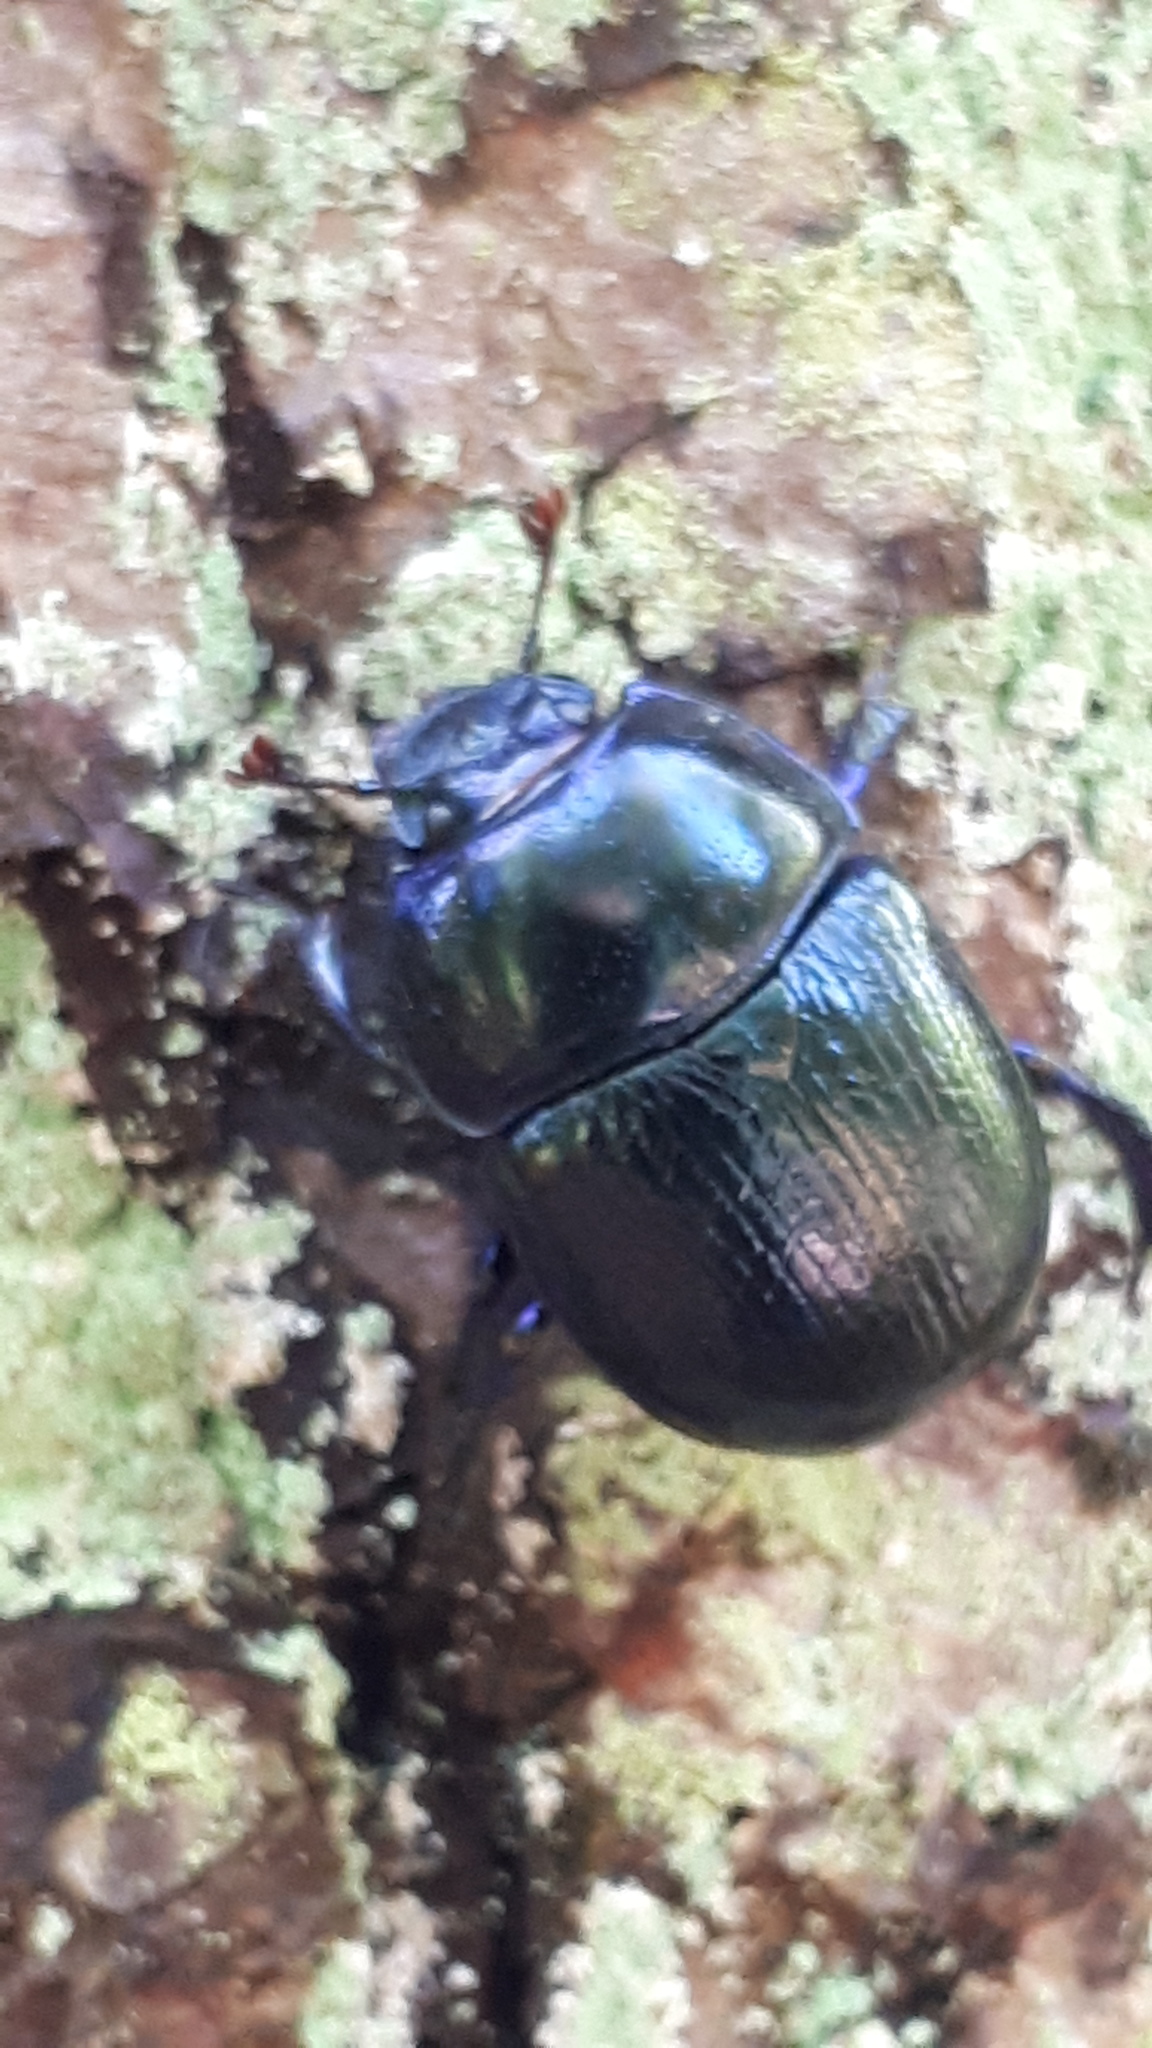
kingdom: Animalia
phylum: Arthropoda
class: Insecta
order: Coleoptera
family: Geotrupidae
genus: Anoplotrupes
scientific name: Anoplotrupes stercorosus
